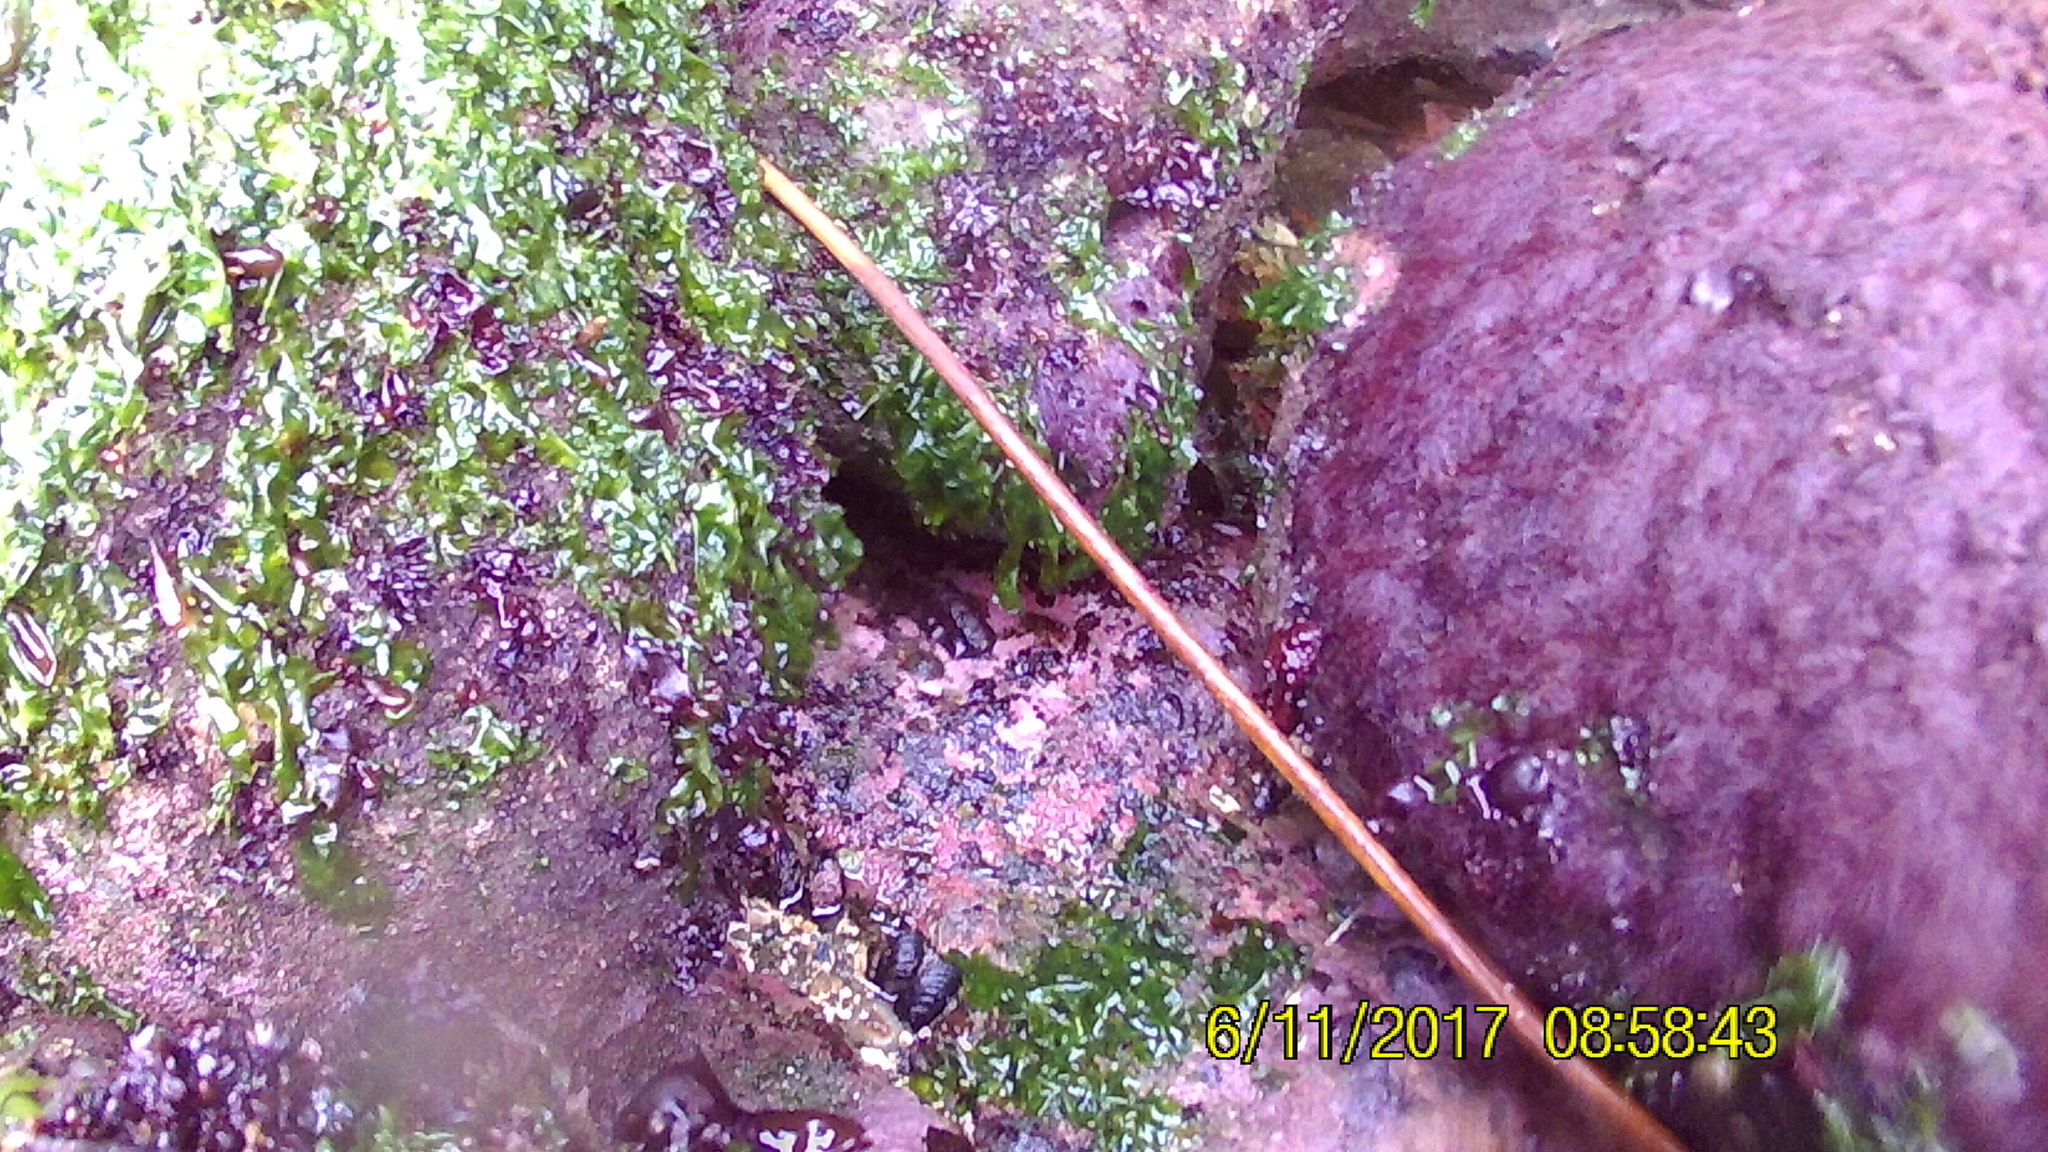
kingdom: Animalia
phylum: Mollusca
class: Polyplacophora
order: Chitonida
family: Mopaliidae
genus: Katharina
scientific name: Katharina tunicata
